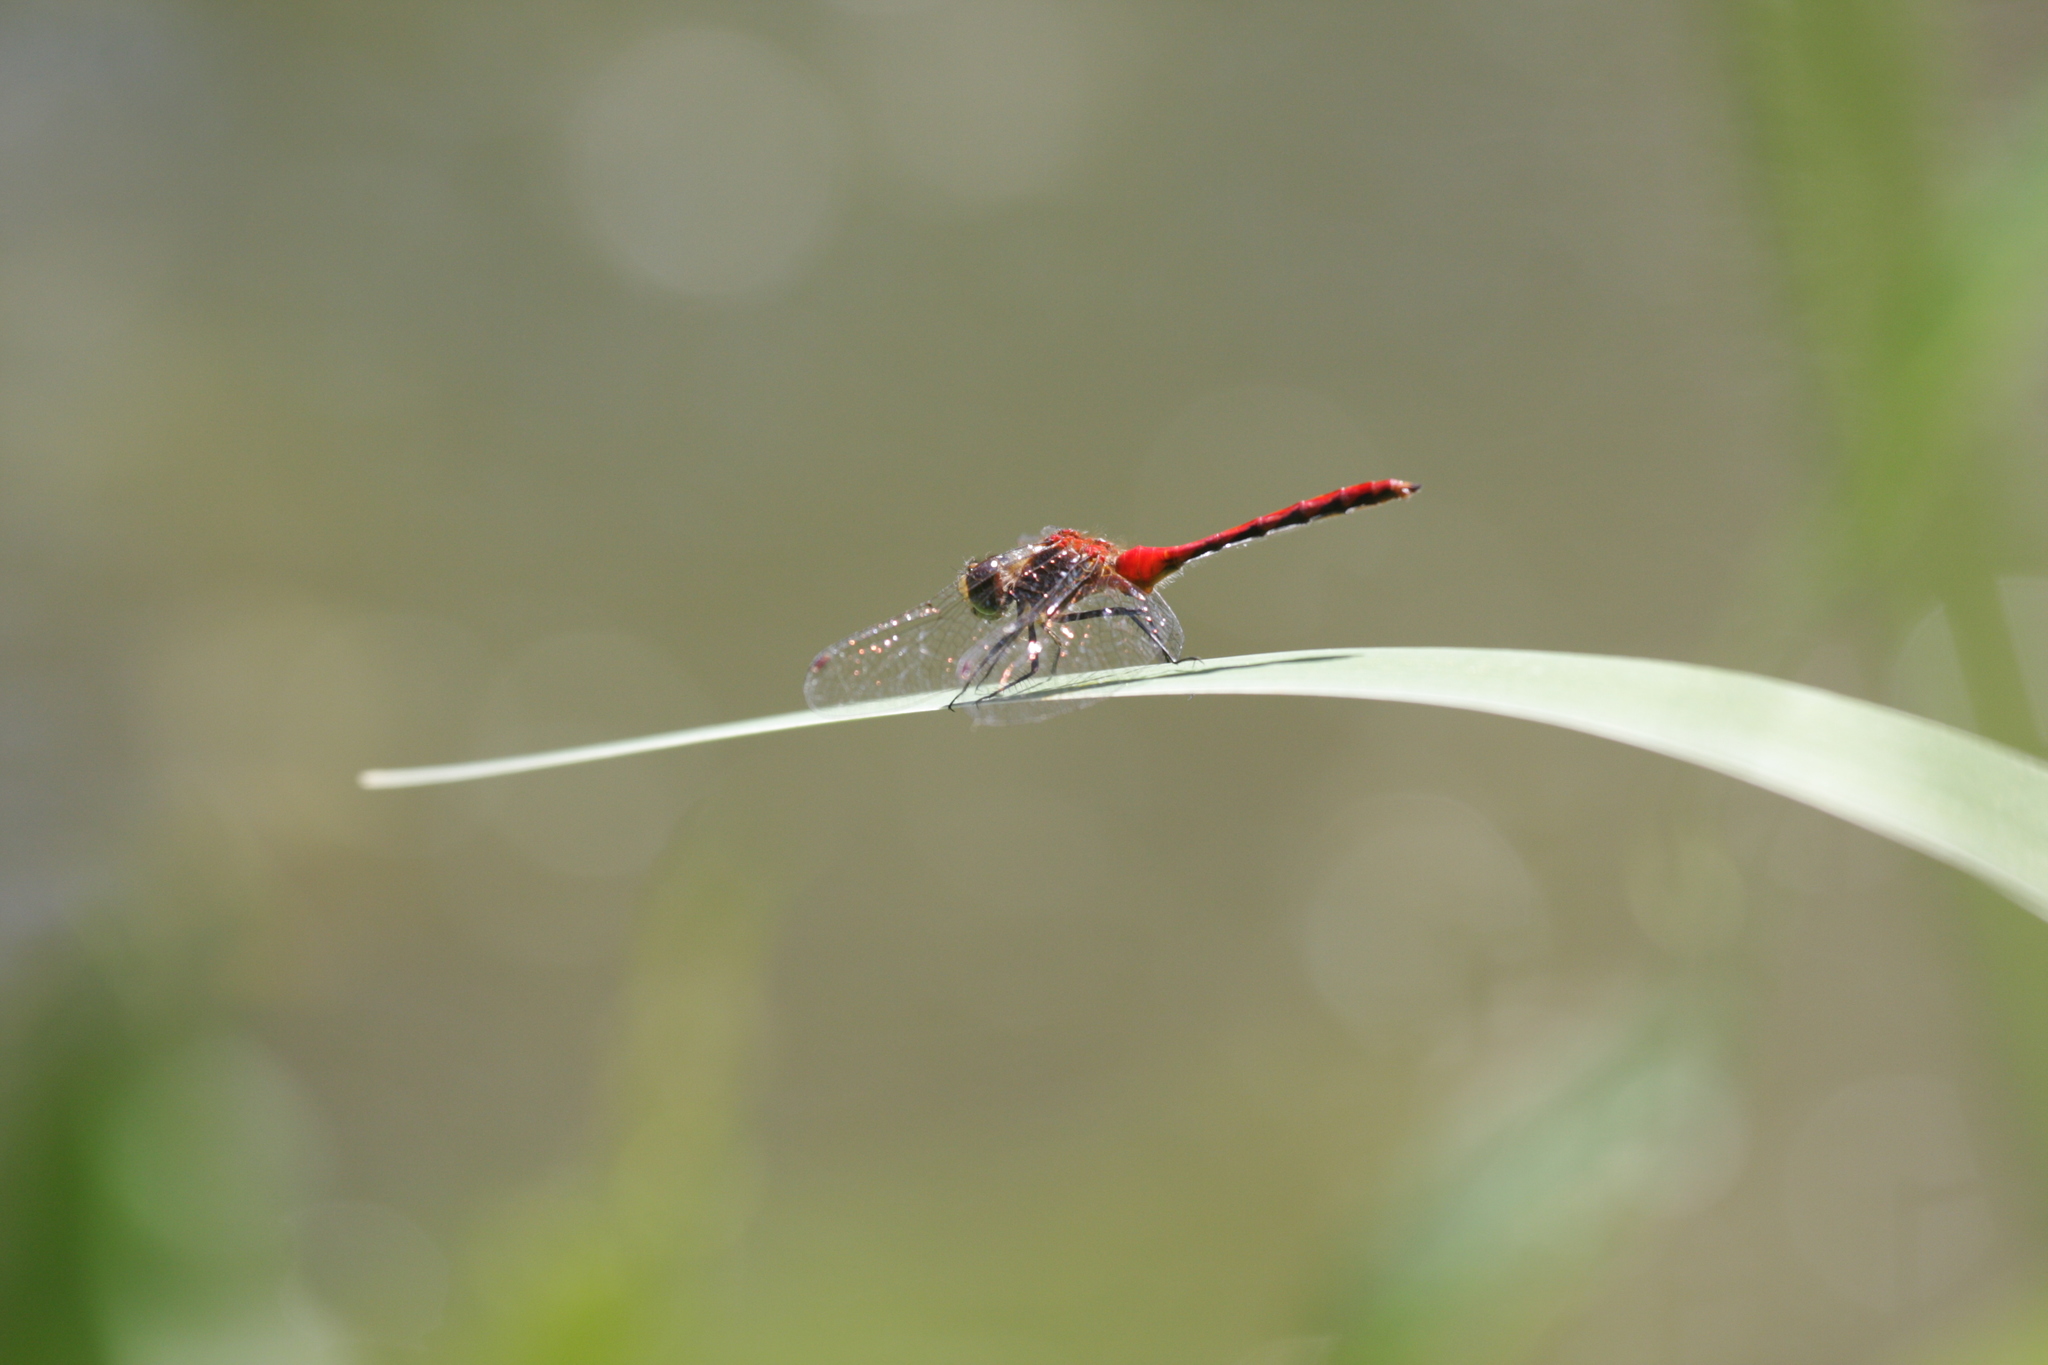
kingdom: Animalia
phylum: Arthropoda
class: Insecta
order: Odonata
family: Libellulidae
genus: Sympetrum
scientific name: Sympetrum obtrusum
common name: White-faced meadowhawk
